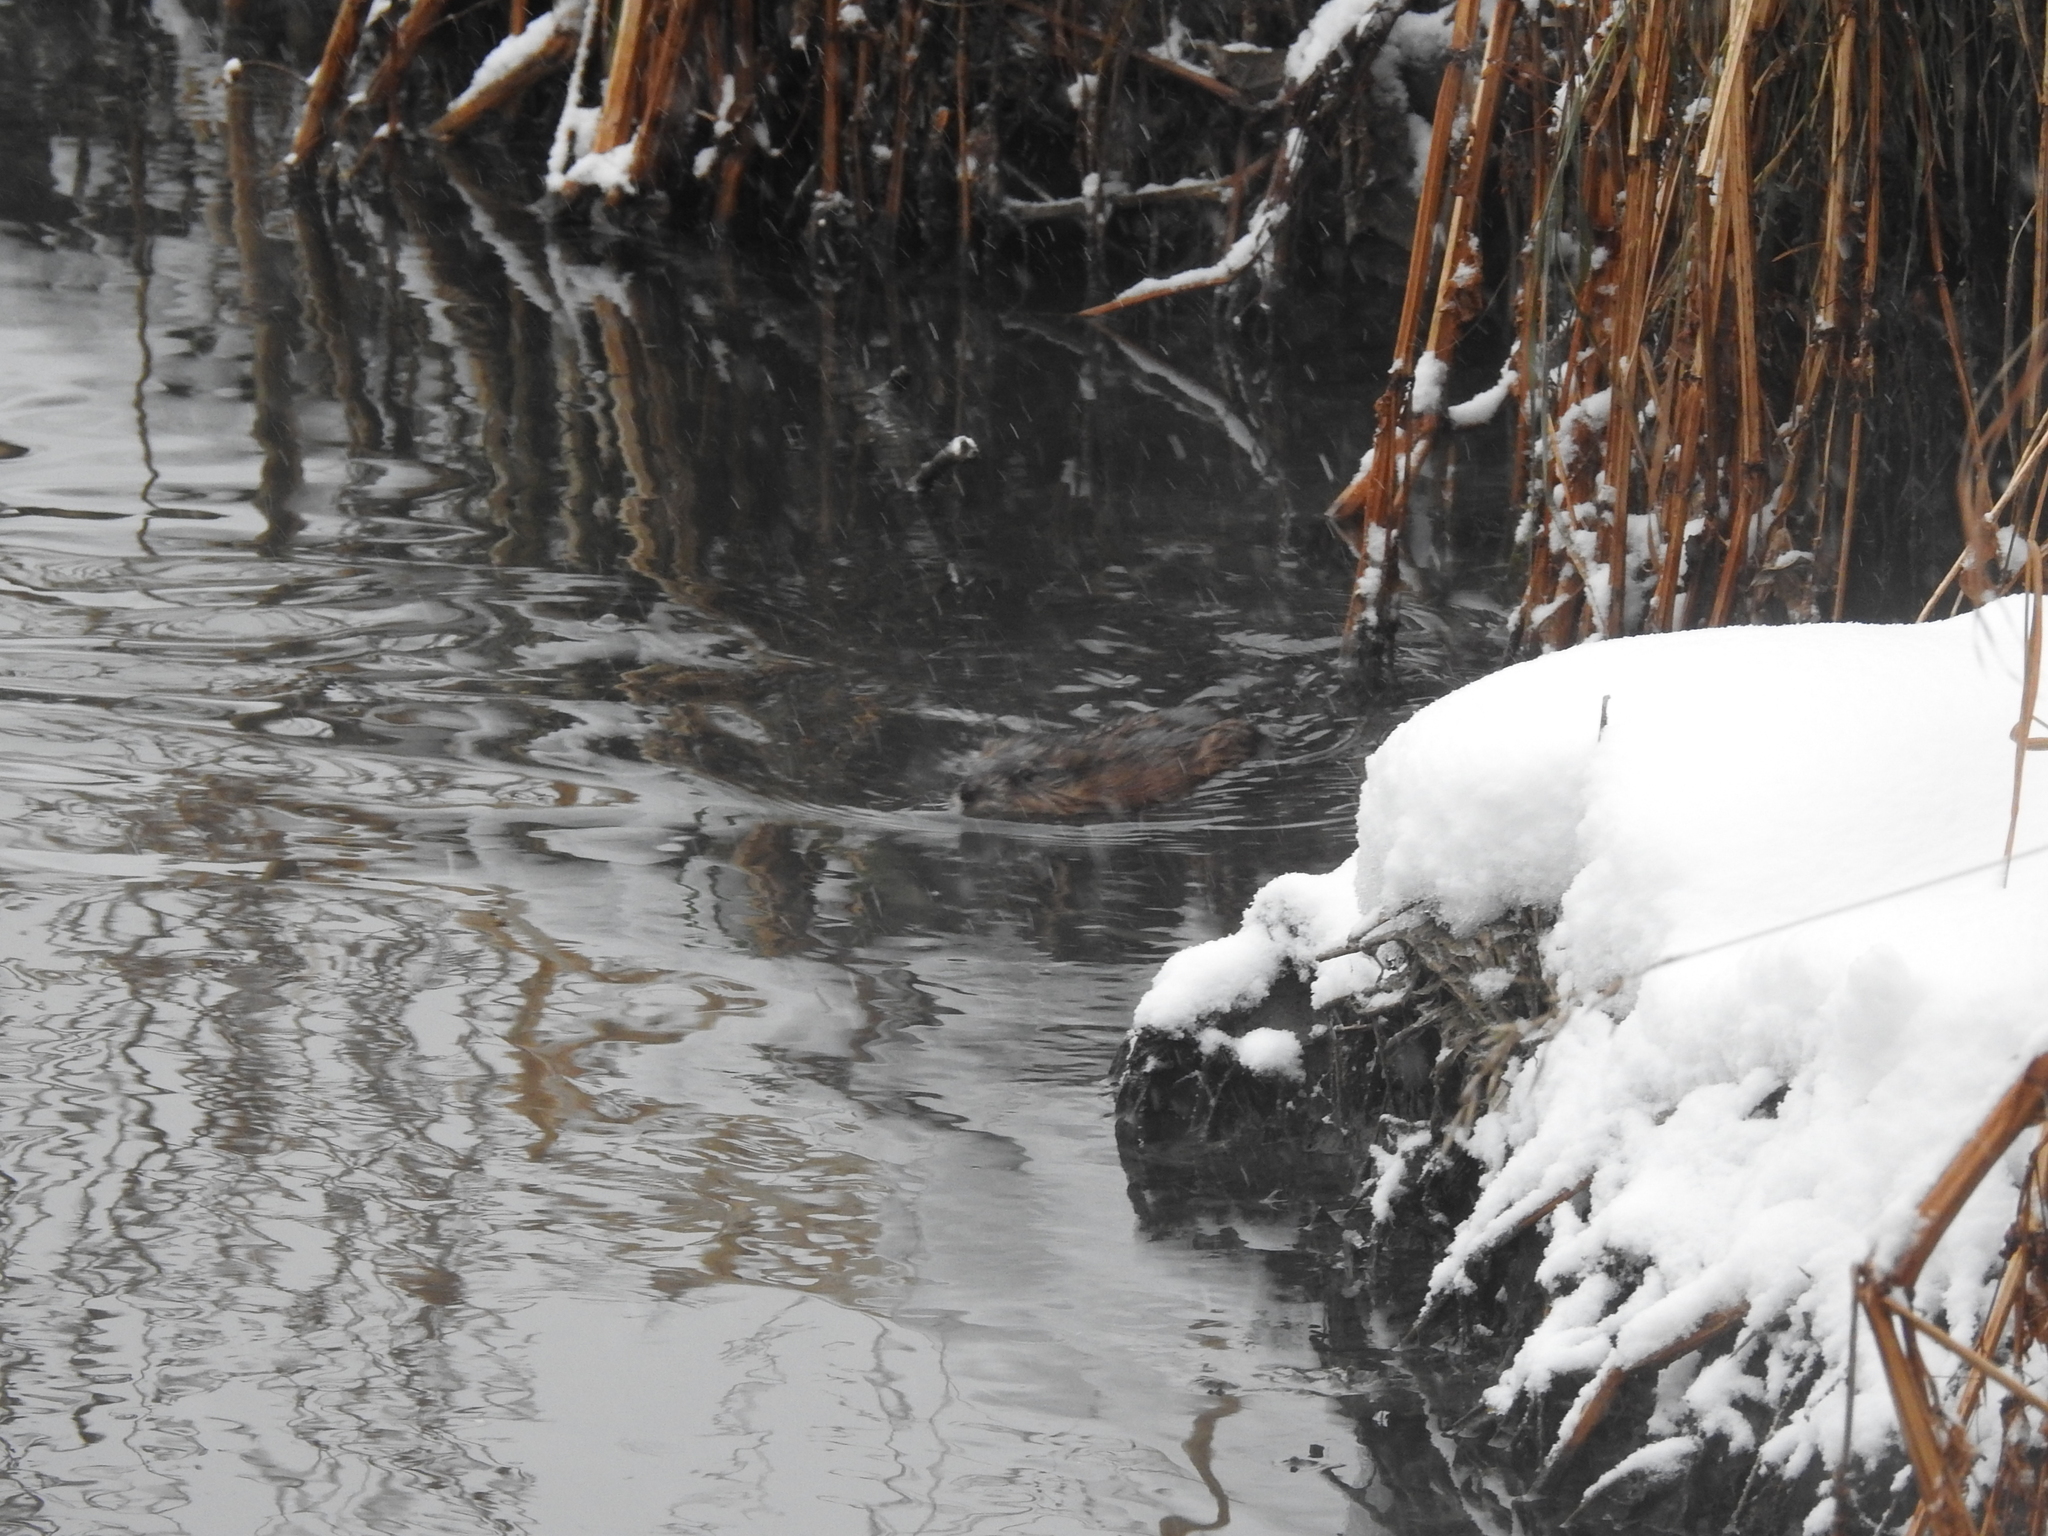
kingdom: Animalia
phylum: Chordata
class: Mammalia
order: Rodentia
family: Cricetidae
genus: Ondatra
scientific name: Ondatra zibethicus
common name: Muskrat
